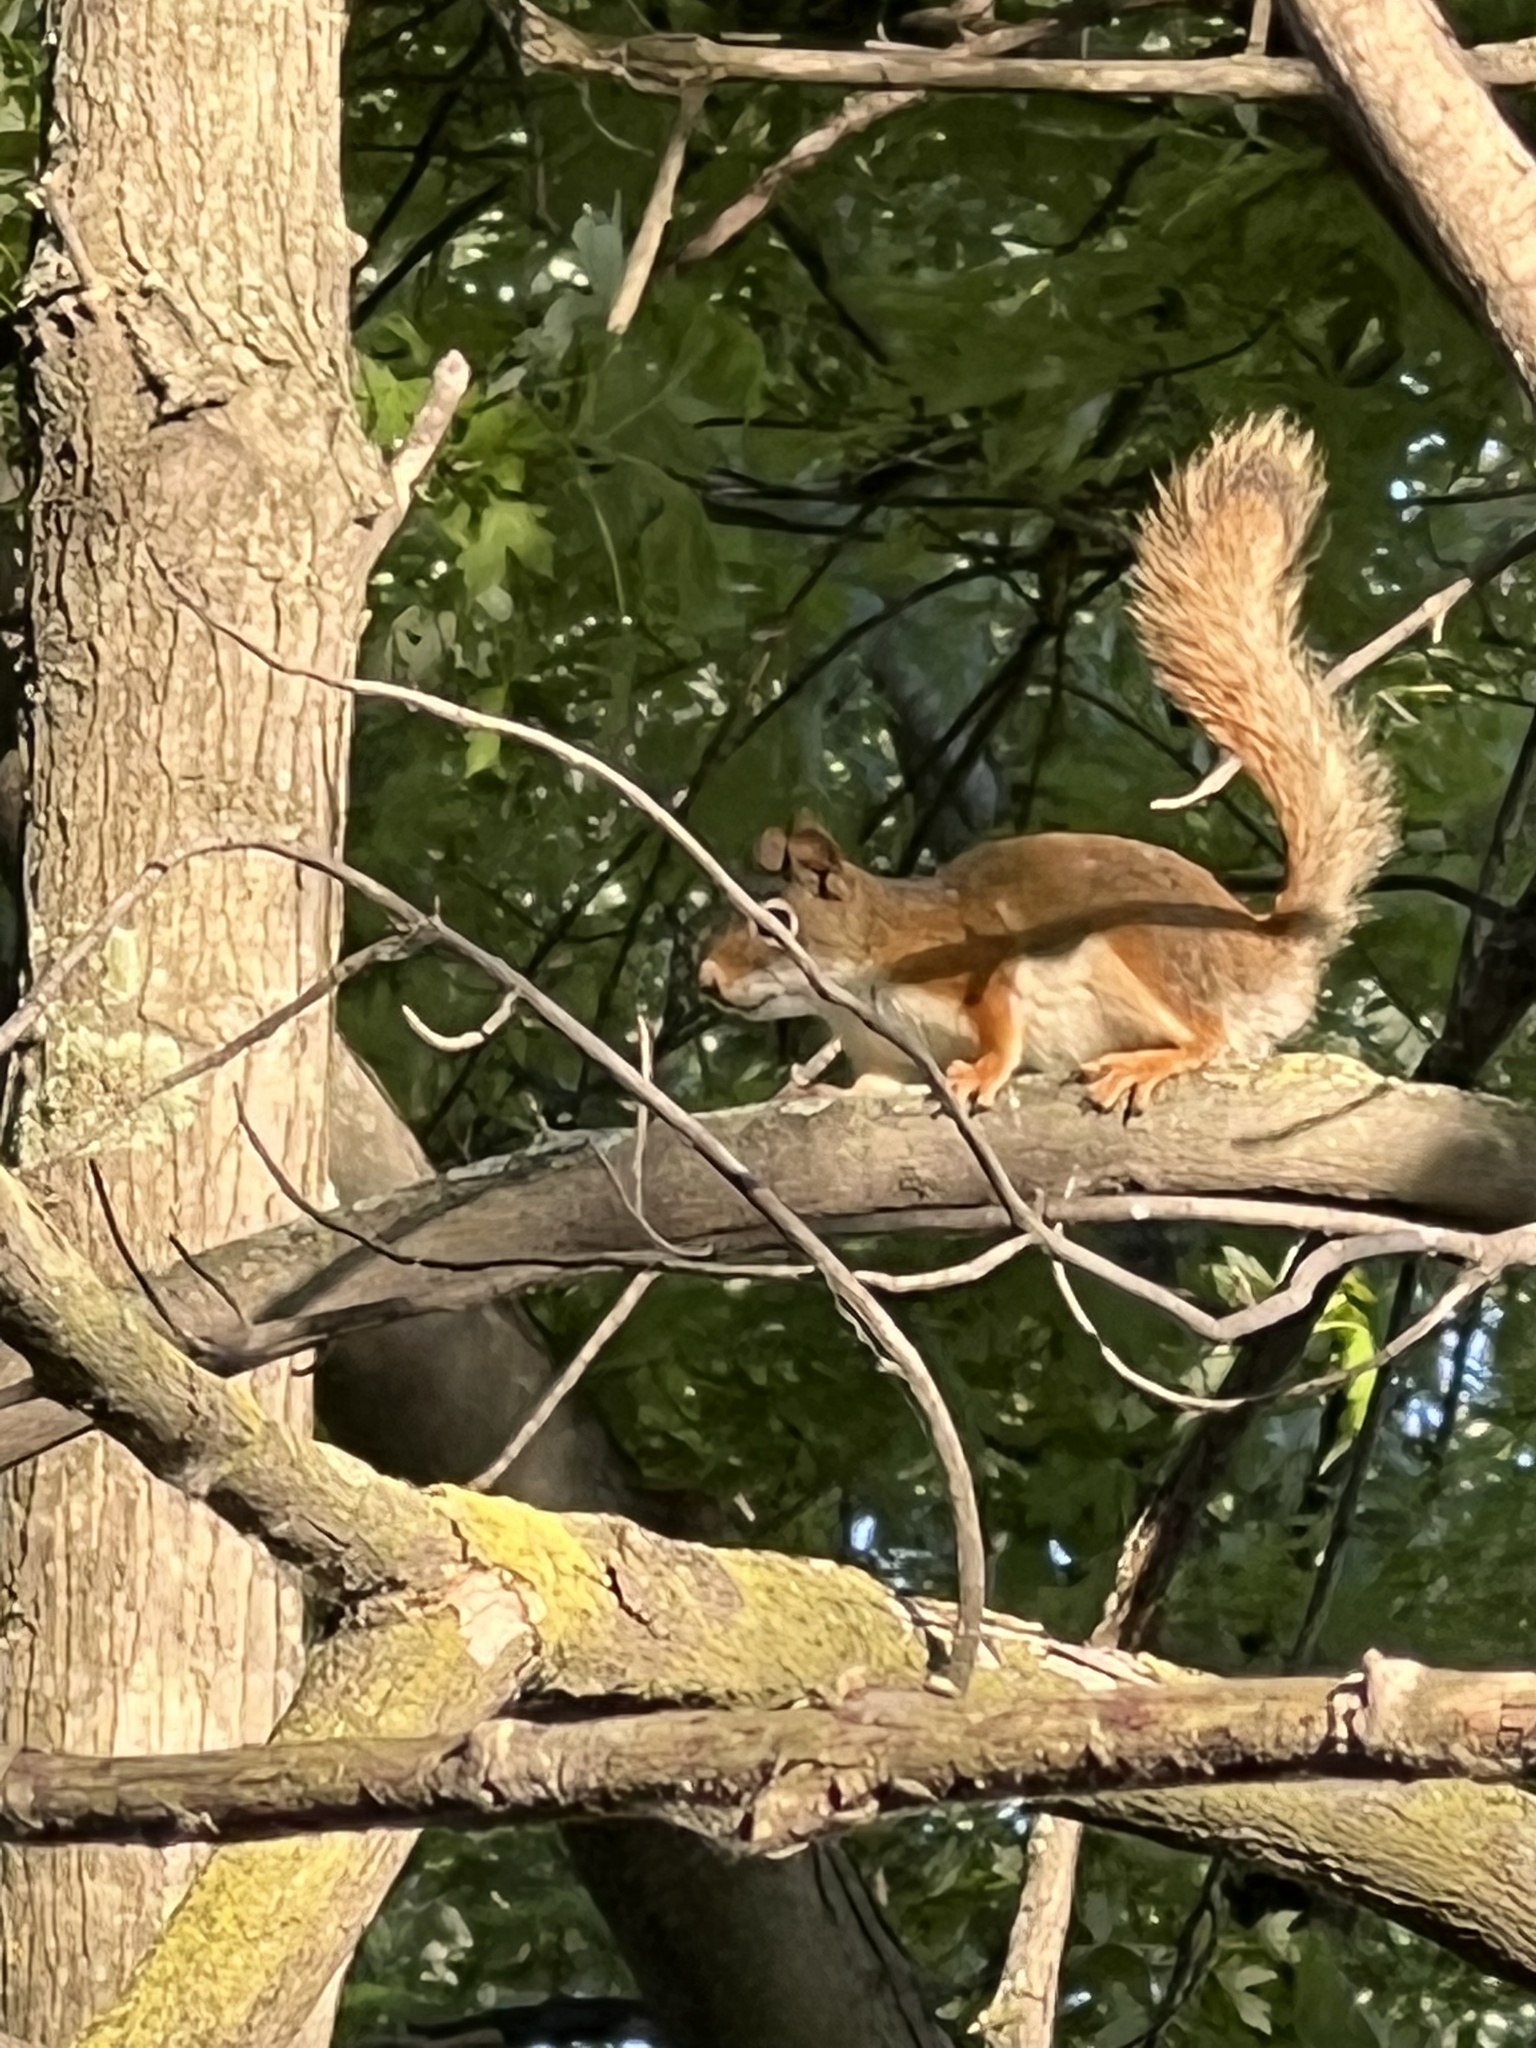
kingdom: Animalia
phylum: Chordata
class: Mammalia
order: Rodentia
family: Sciuridae
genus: Tamiasciurus
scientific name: Tamiasciurus hudsonicus
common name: Red squirrel
